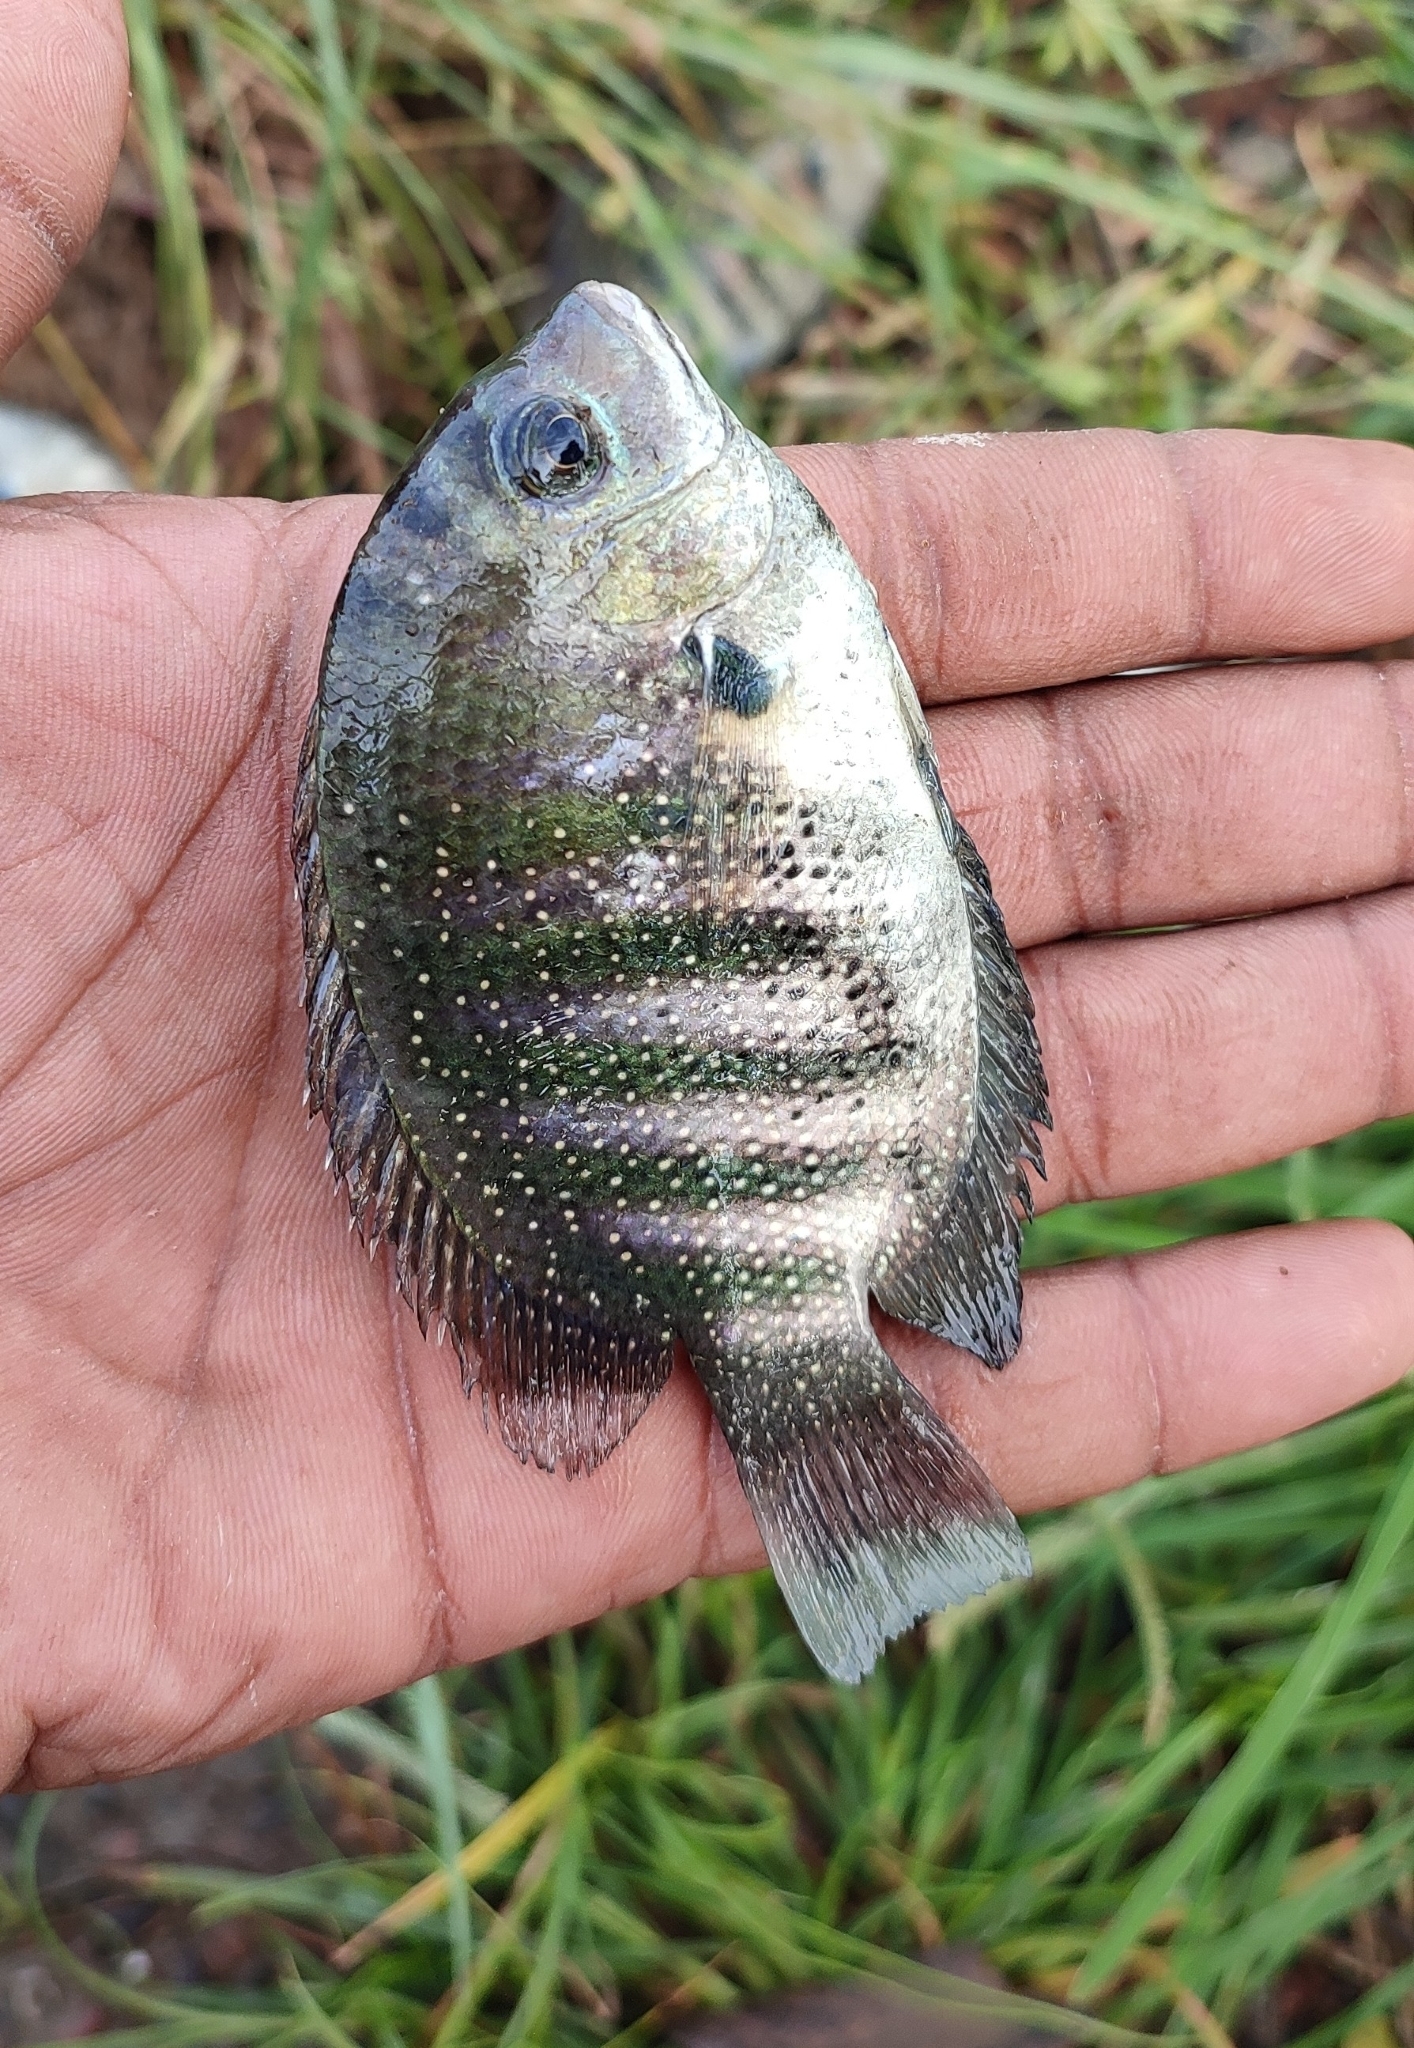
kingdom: Animalia
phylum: Chordata
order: Perciformes
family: Cichlidae
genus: Etroplus
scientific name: Etroplus suratensis
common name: Green chromide
